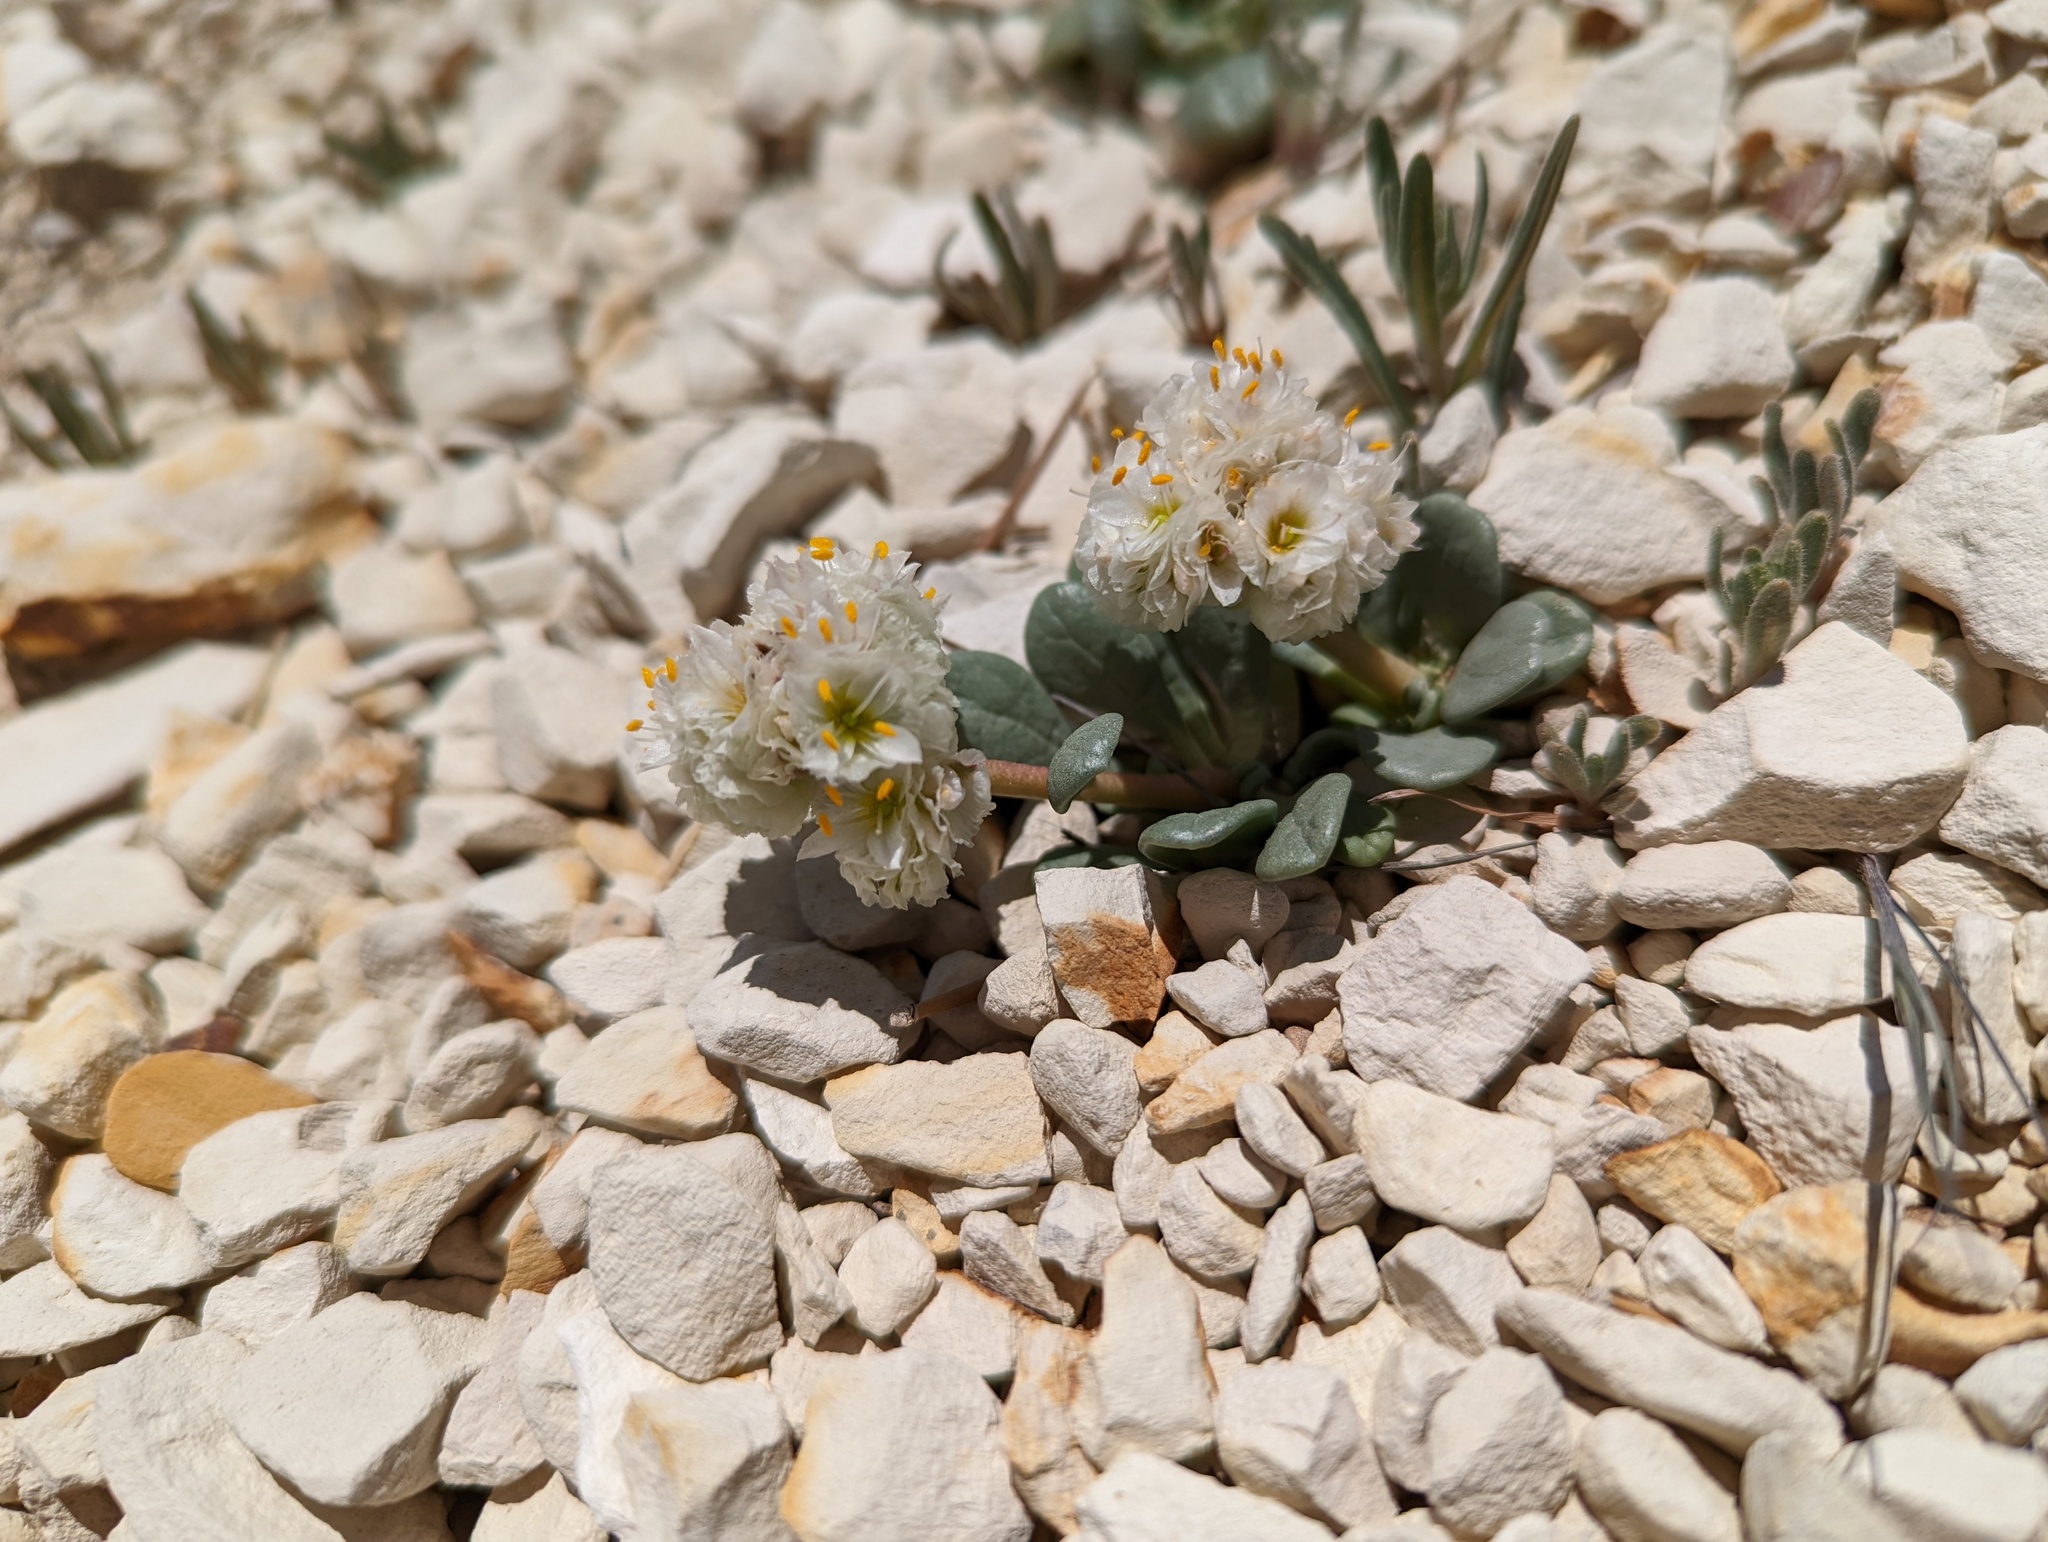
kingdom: Plantae
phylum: Tracheophyta
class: Magnoliopsida
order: Caryophyllales
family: Montiaceae
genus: Calyptridium
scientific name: Calyptridium umbellatum
